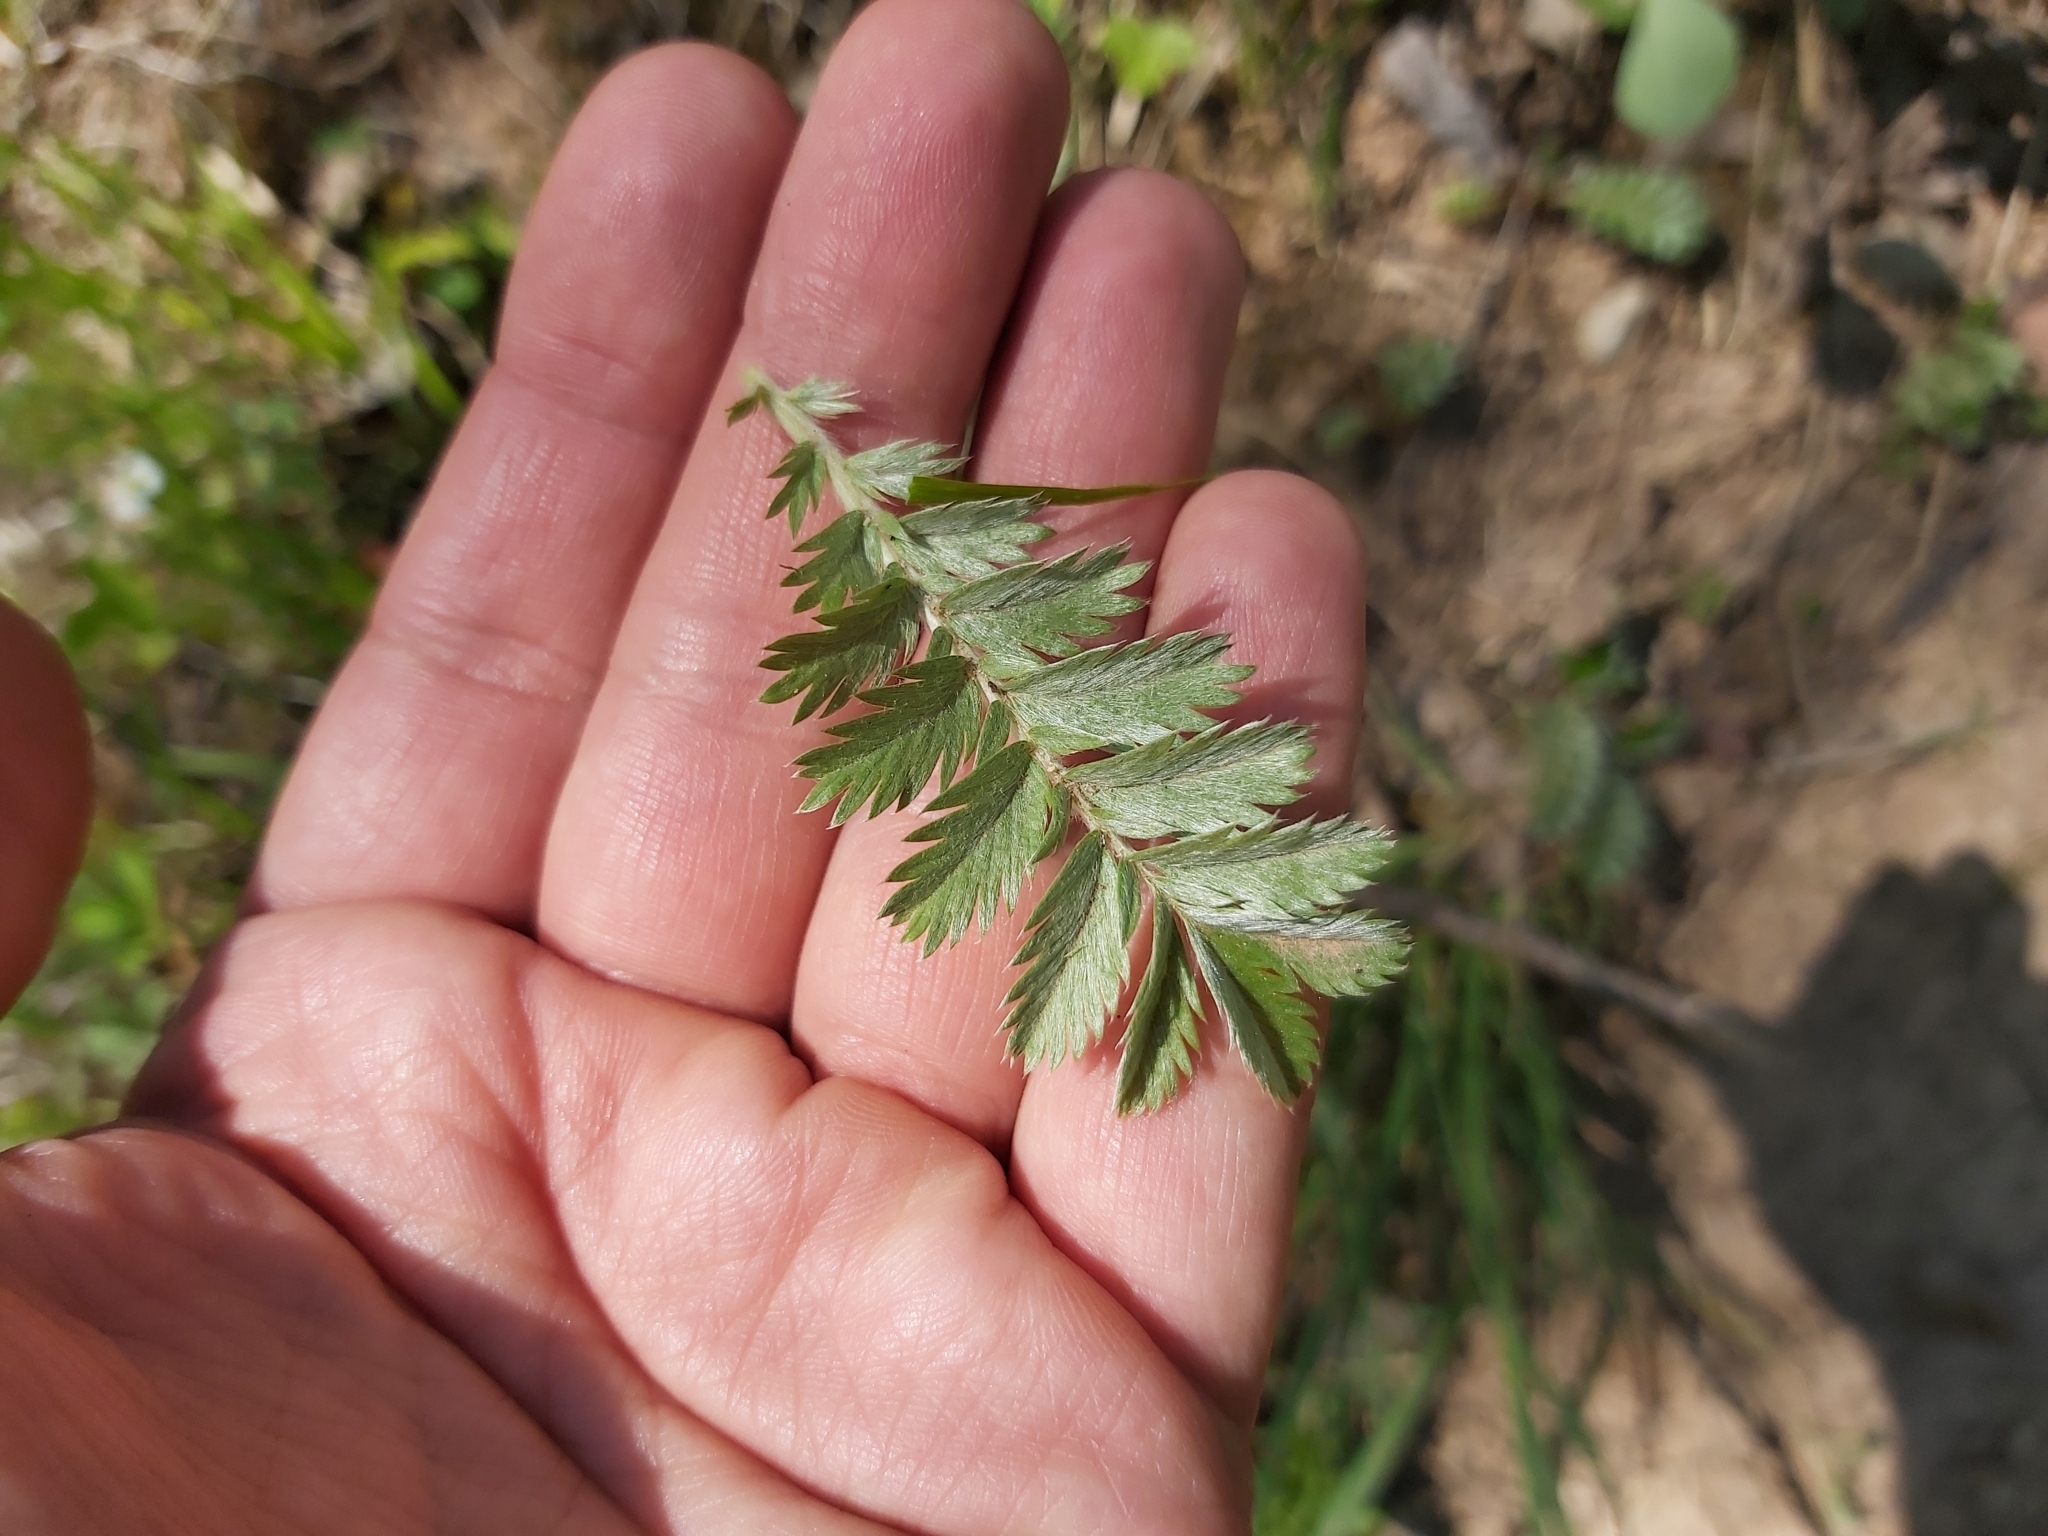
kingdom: Plantae
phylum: Tracheophyta
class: Magnoliopsida
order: Rosales
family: Rosaceae
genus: Argentina
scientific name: Argentina anserina
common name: Common silverweed
